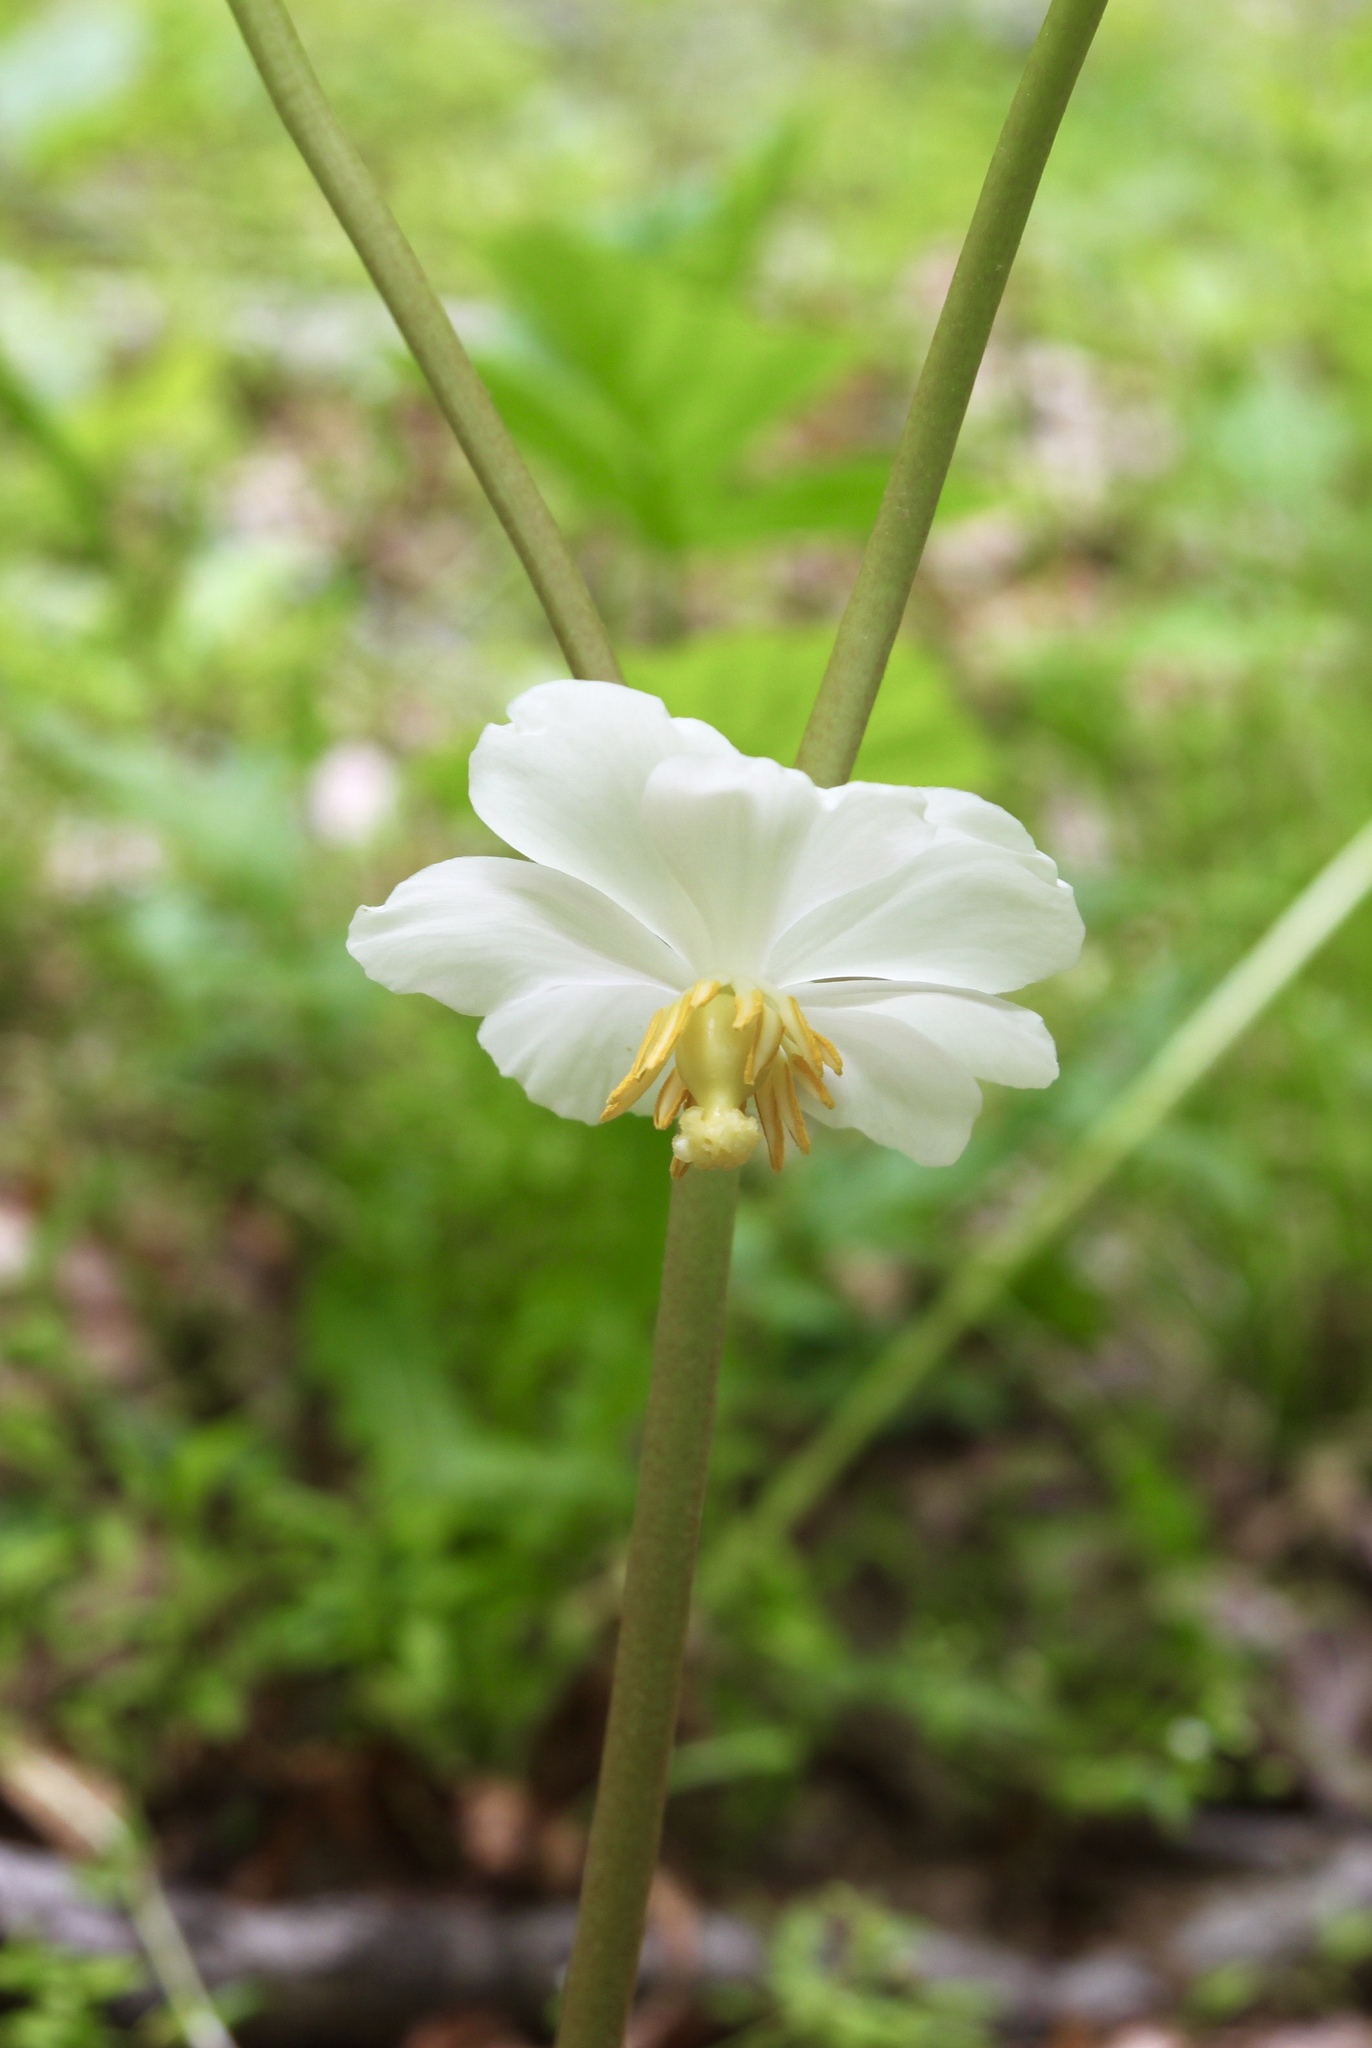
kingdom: Plantae
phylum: Tracheophyta
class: Magnoliopsida
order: Ranunculales
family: Berberidaceae
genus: Podophyllum
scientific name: Podophyllum peltatum
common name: Wild mandrake
